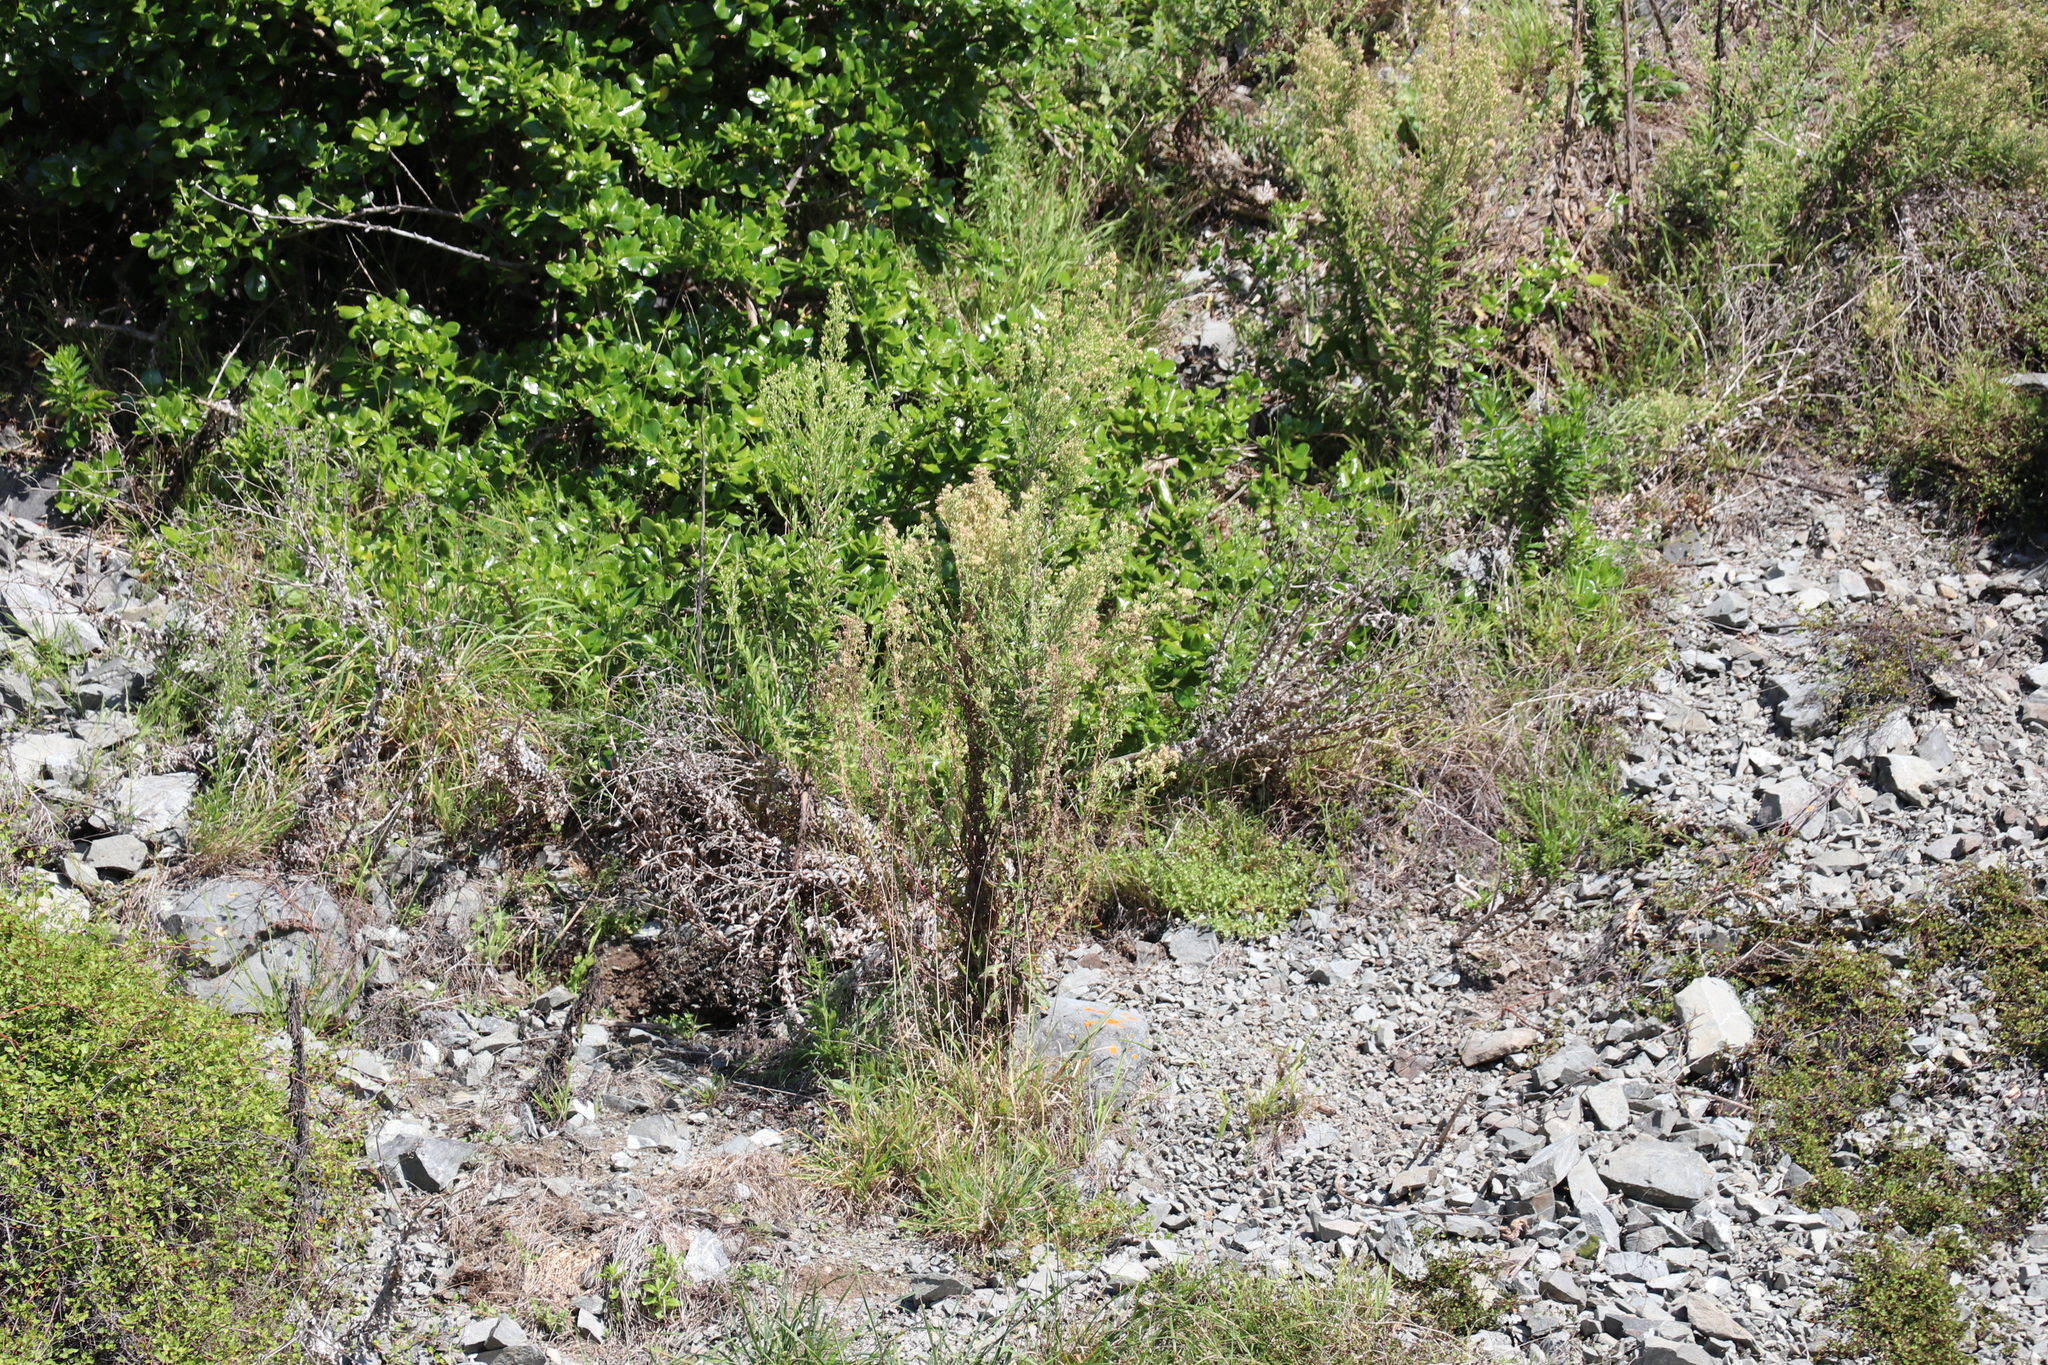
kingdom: Plantae
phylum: Tracheophyta
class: Magnoliopsida
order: Asterales
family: Asteraceae
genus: Erigeron
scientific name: Erigeron sumatrensis
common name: Daisy
